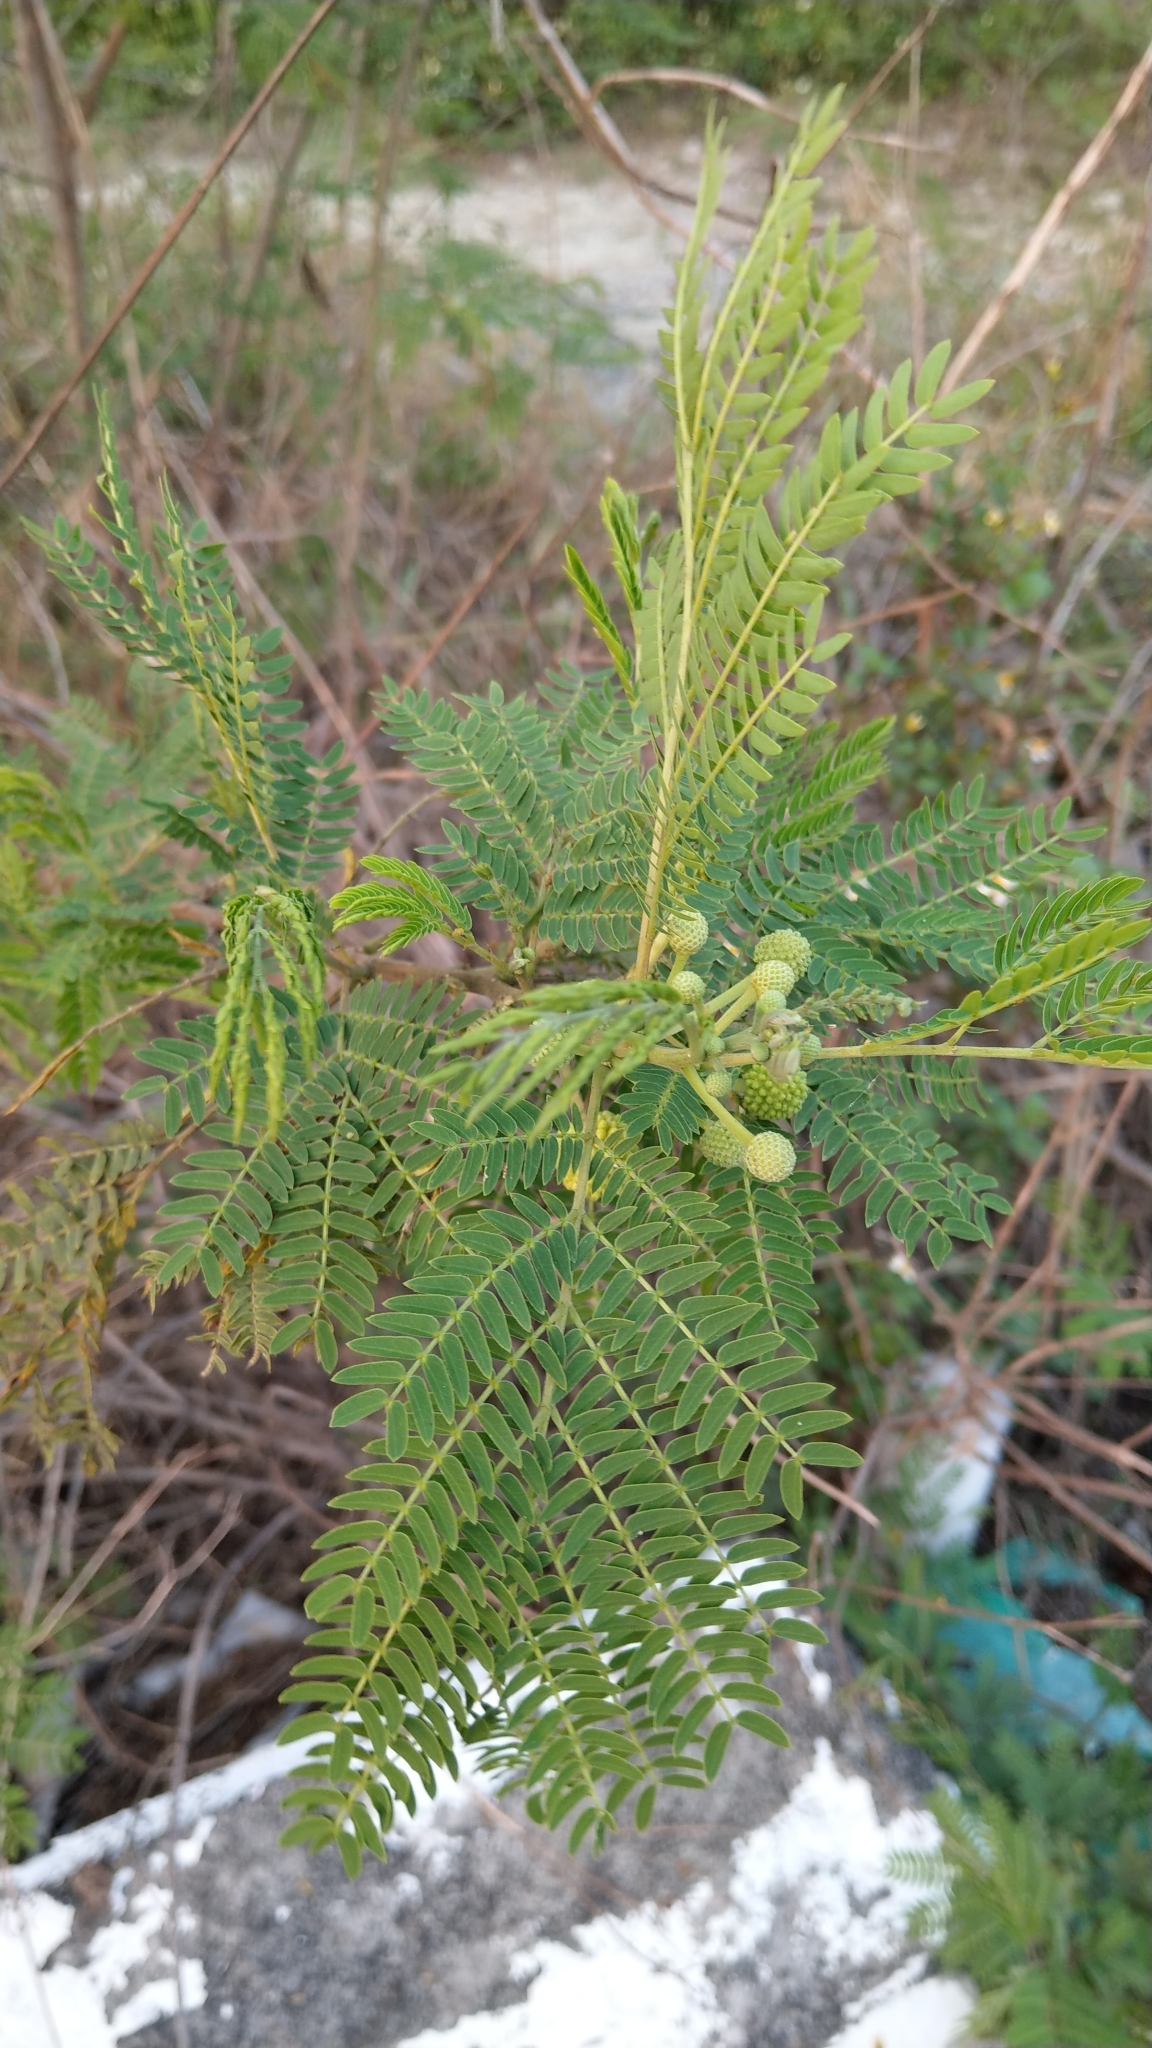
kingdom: Plantae
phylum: Tracheophyta
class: Magnoliopsida
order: Fabales
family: Fabaceae
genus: Leucaena
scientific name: Leucaena leucocephala
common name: White leadtree
